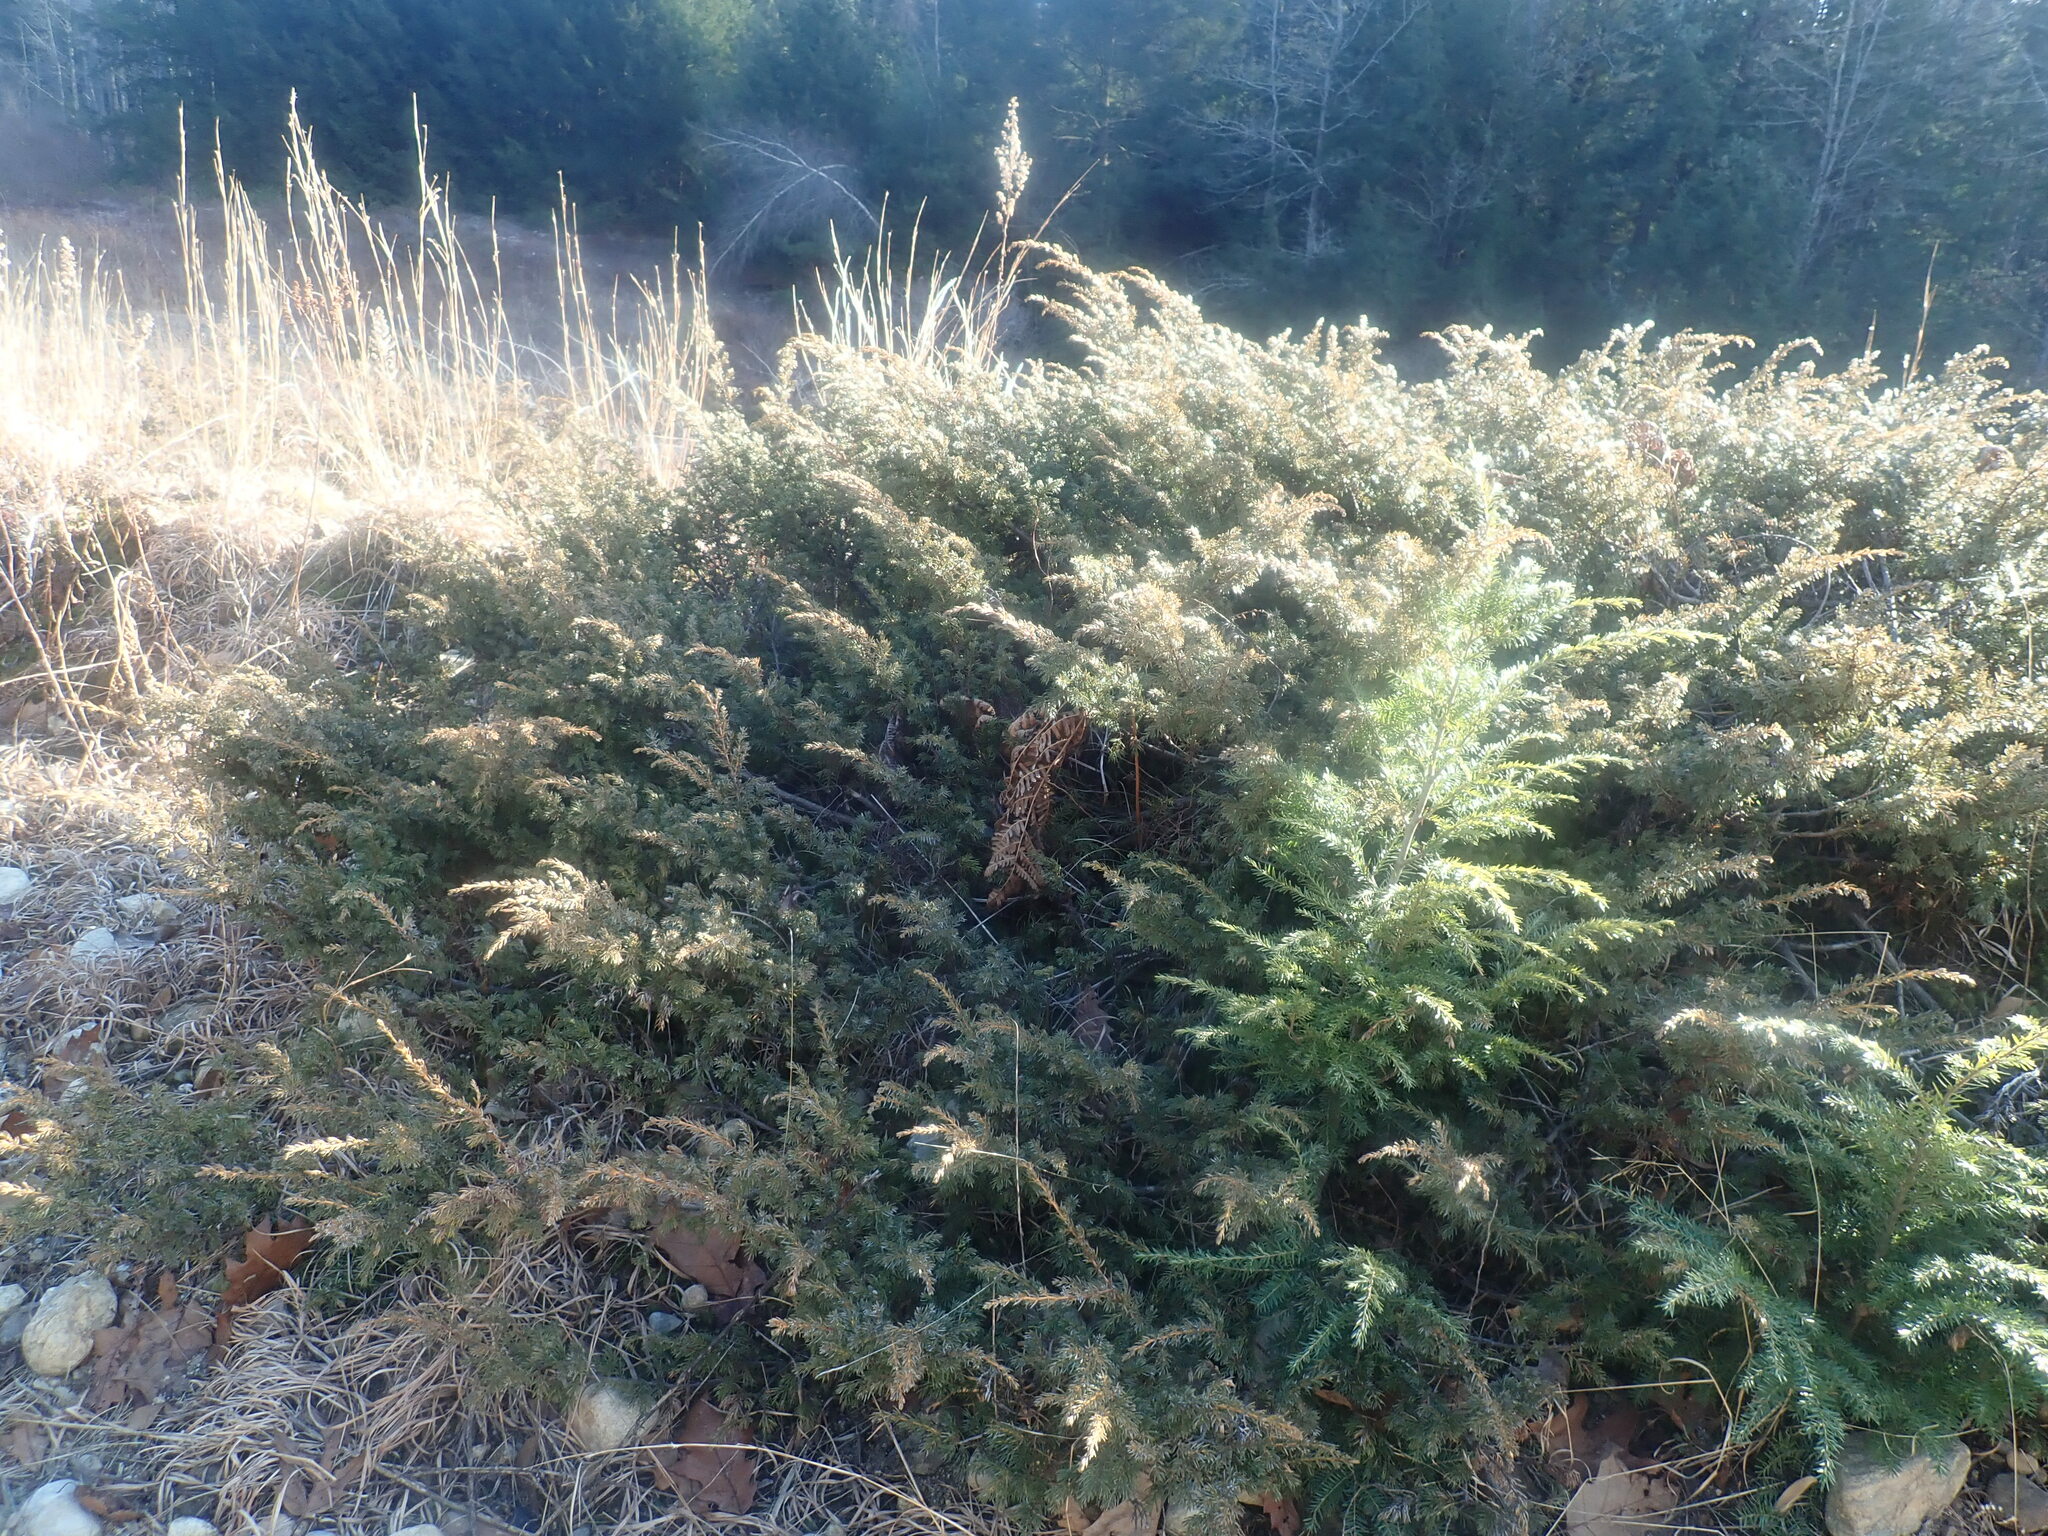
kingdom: Plantae
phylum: Tracheophyta
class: Pinopsida
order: Pinales
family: Cupressaceae
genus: Juniperus
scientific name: Juniperus communis
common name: Common juniper
